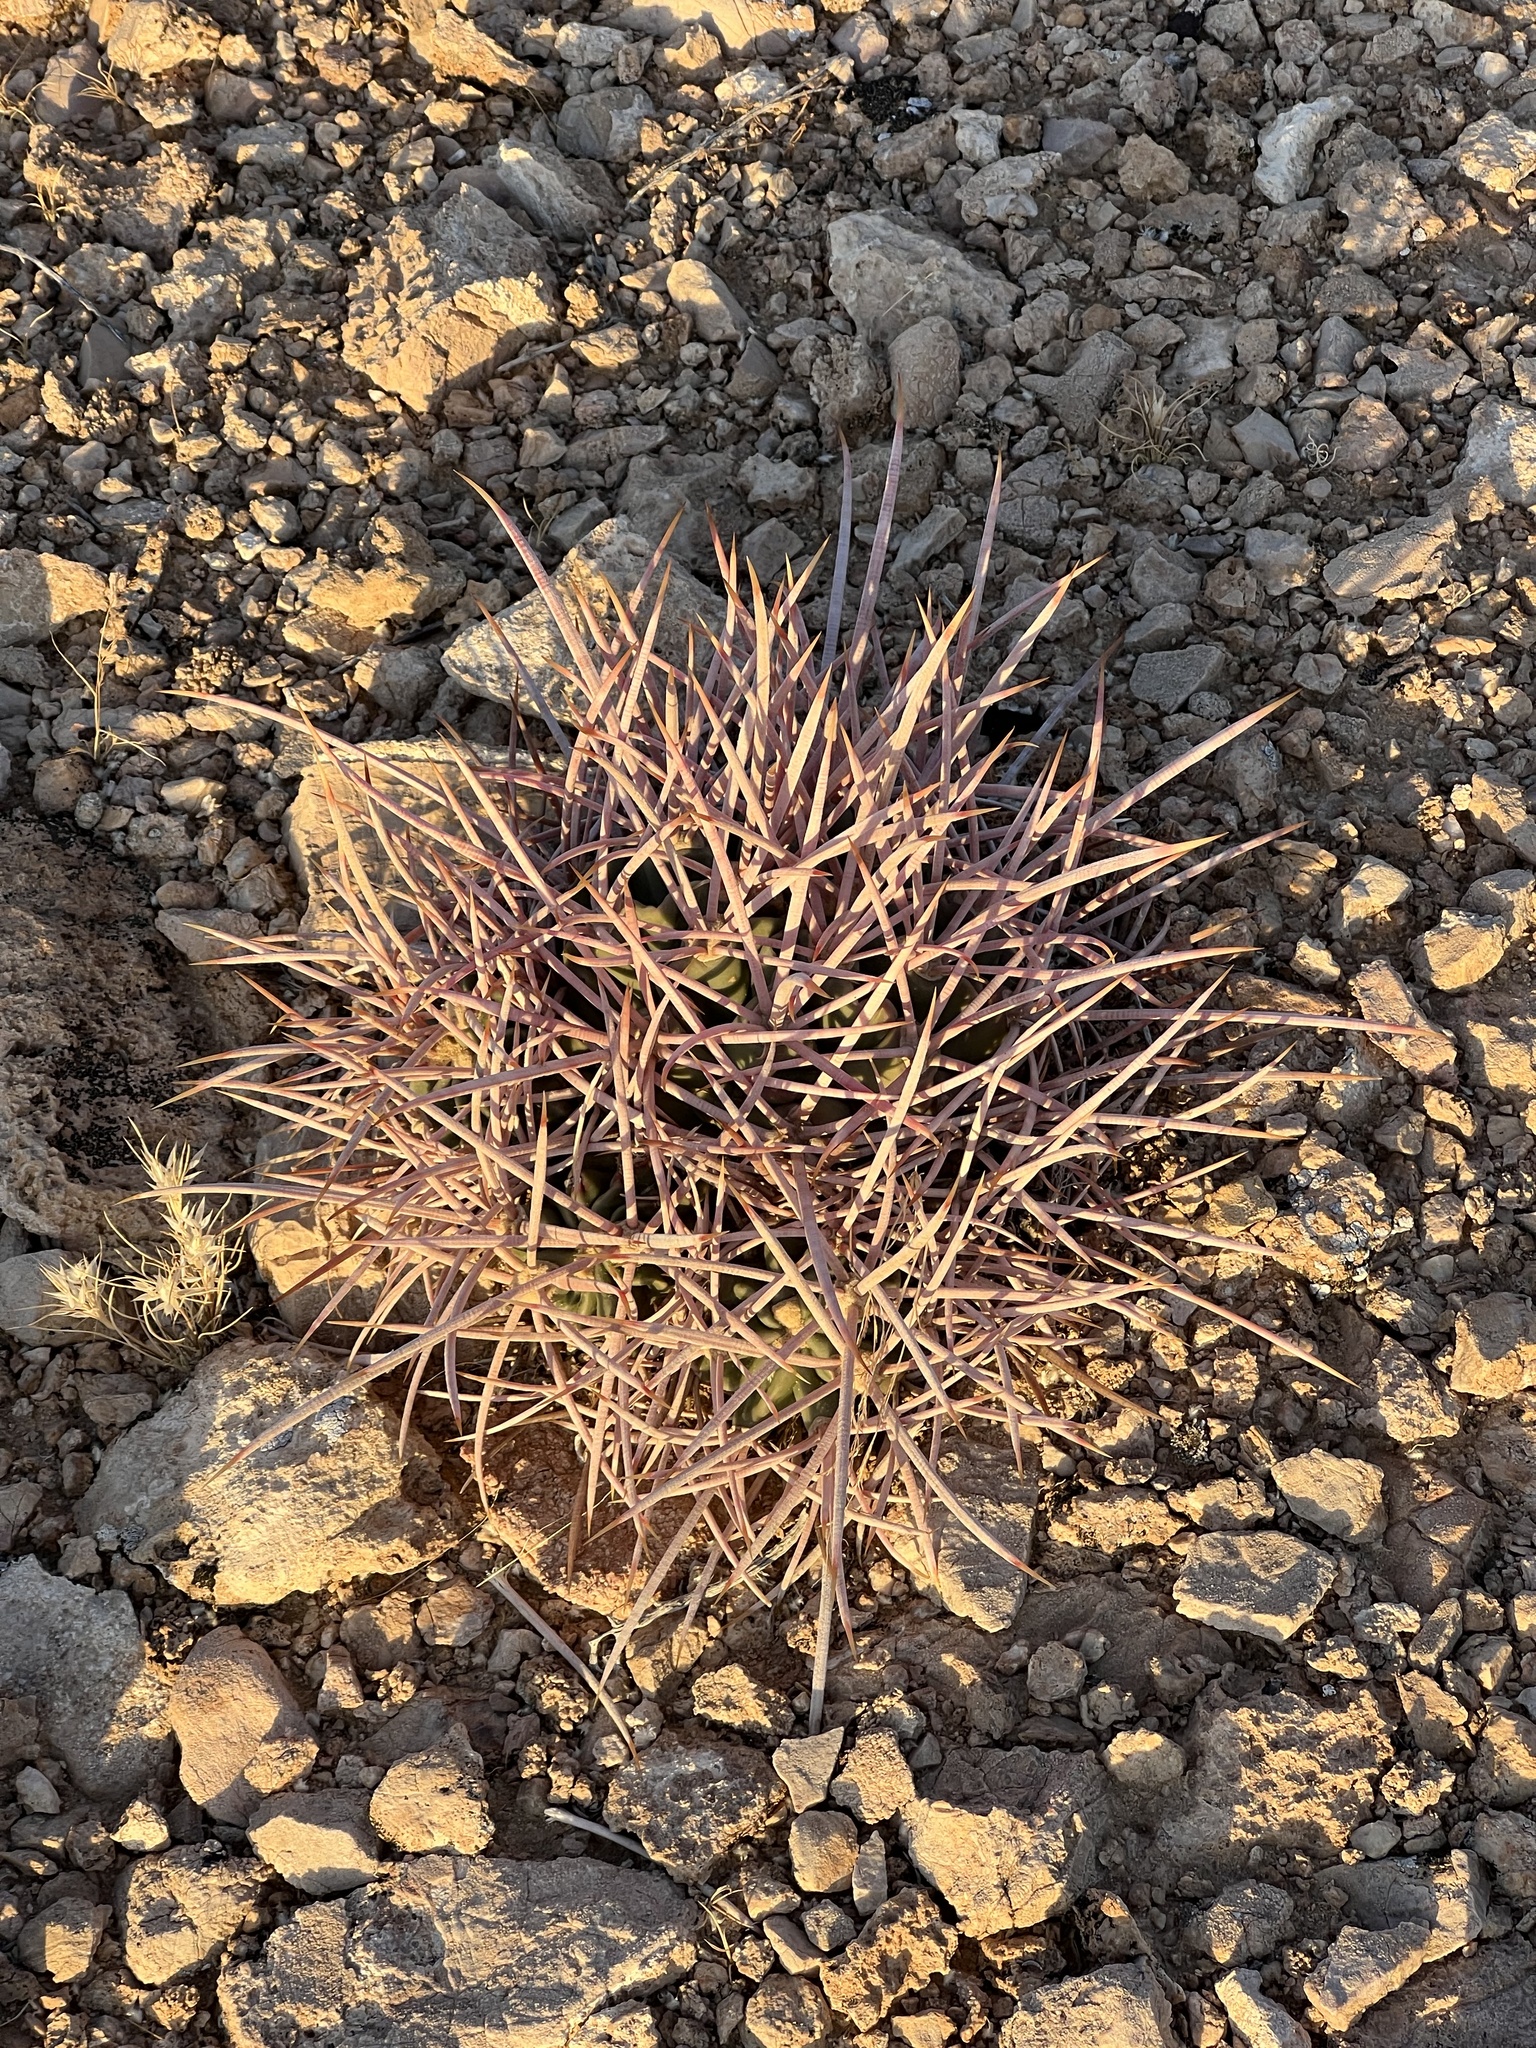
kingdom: Plantae
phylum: Tracheophyta
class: Magnoliopsida
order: Caryophyllales
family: Cactaceae
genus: Echinocactus
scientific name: Echinocactus polycephalus
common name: Cottontop cactus
